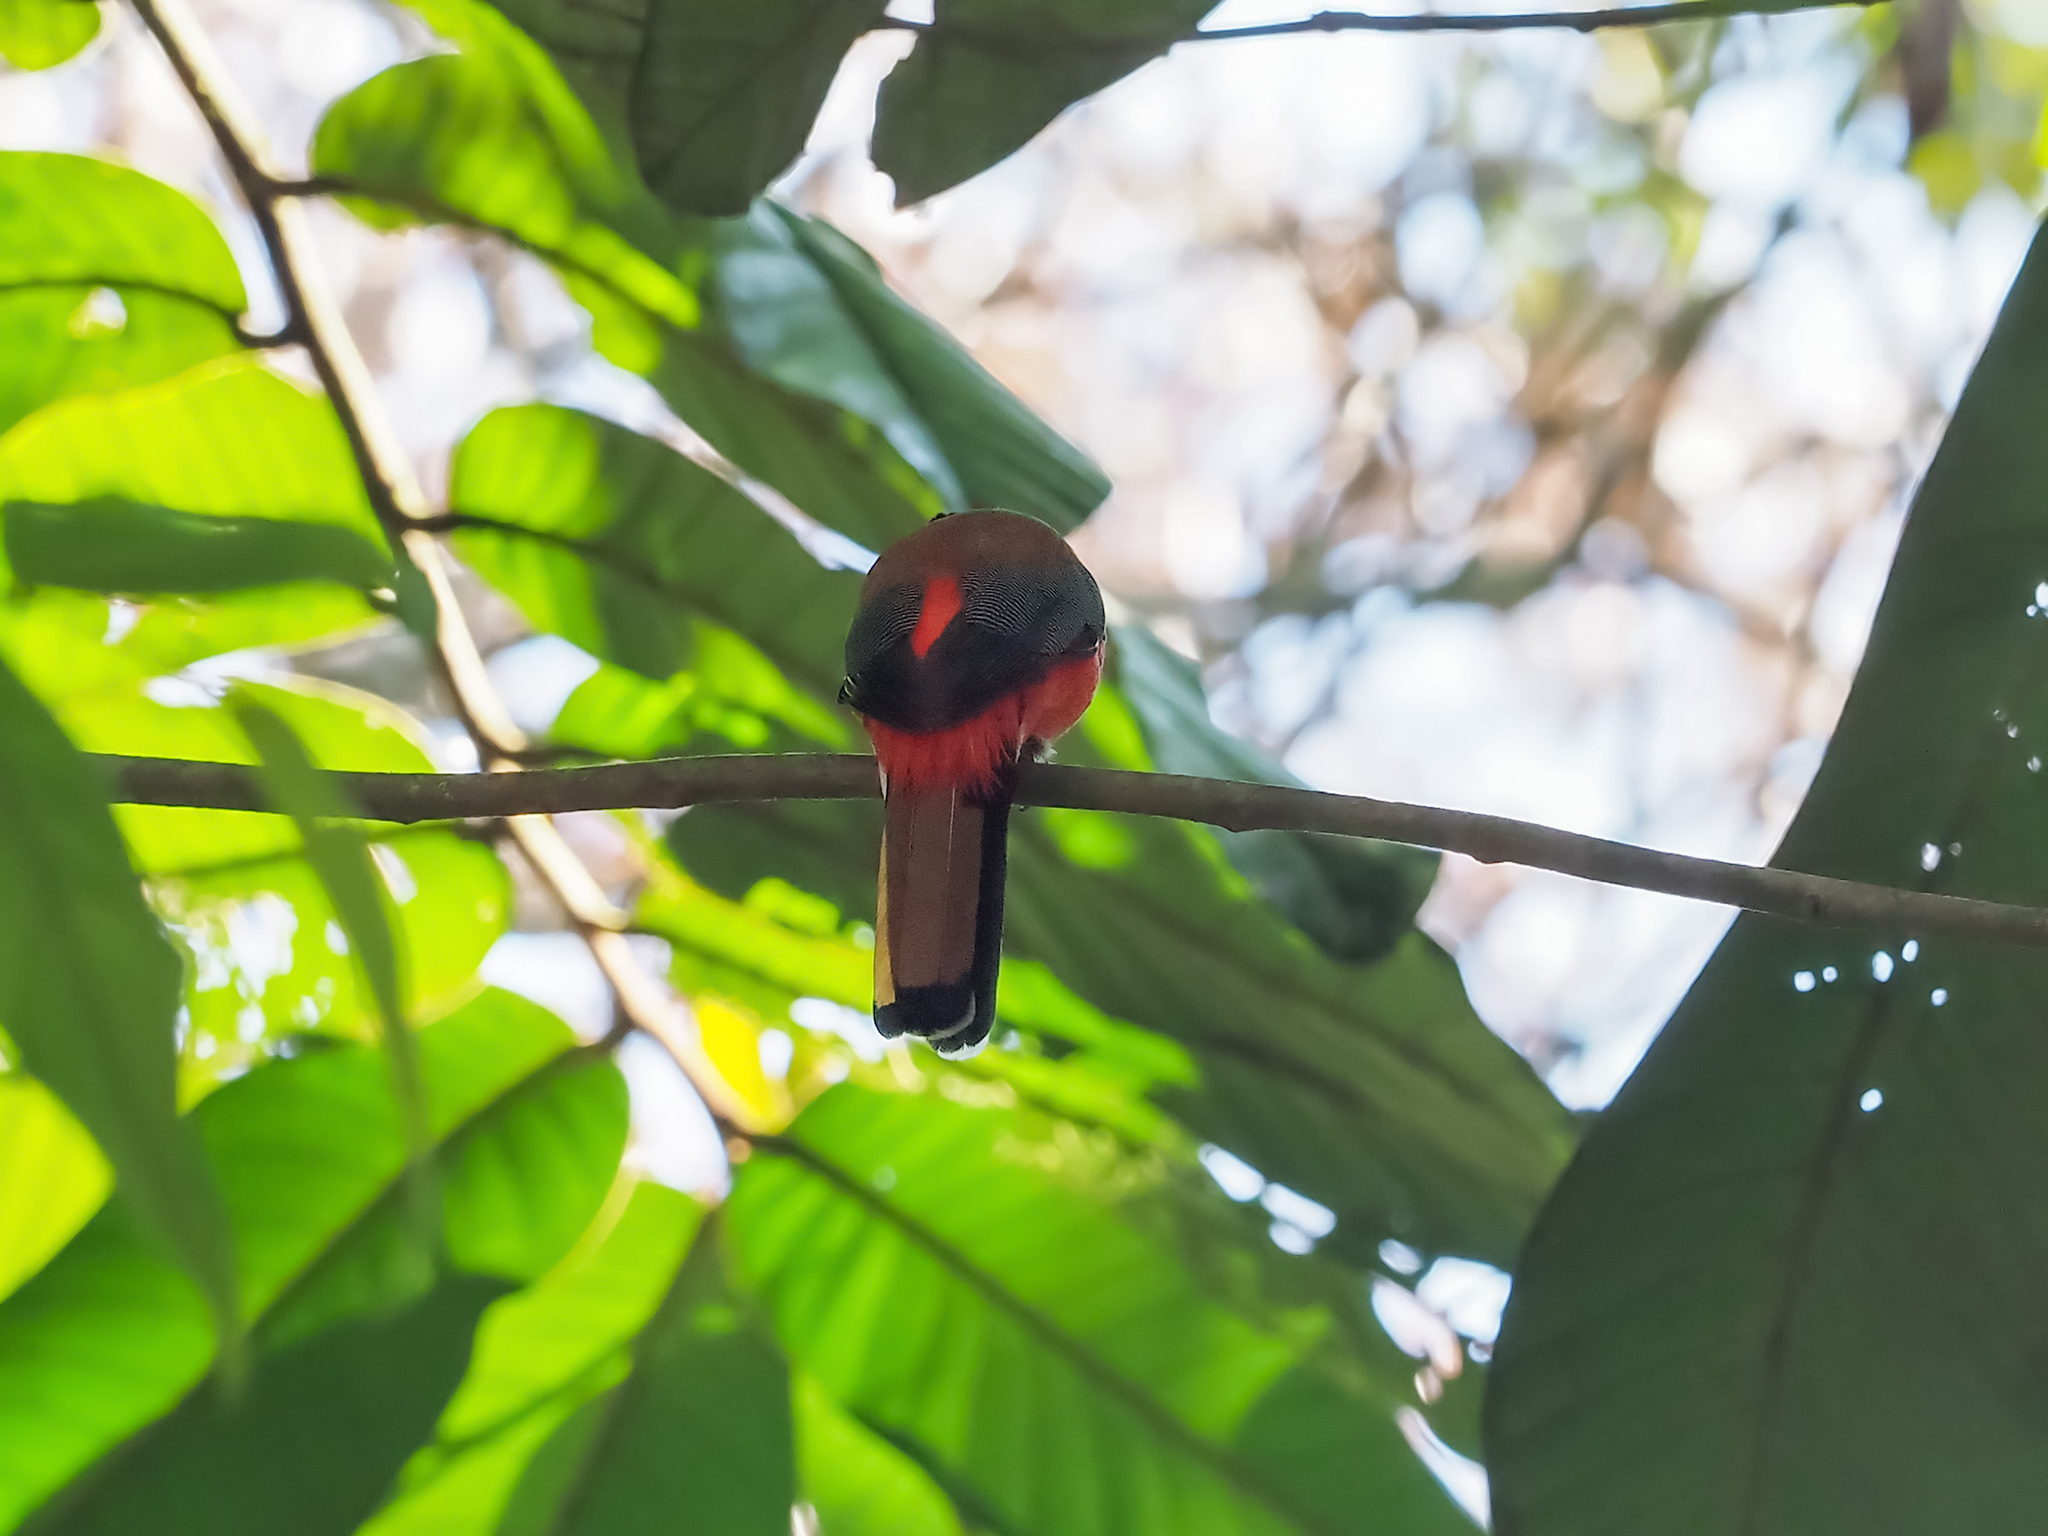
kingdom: Animalia
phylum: Chordata
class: Aves
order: Trogoniformes
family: Trogonidae
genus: Harpactes
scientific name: Harpactes duvaucelii
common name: Scarlet-rumped trogon
